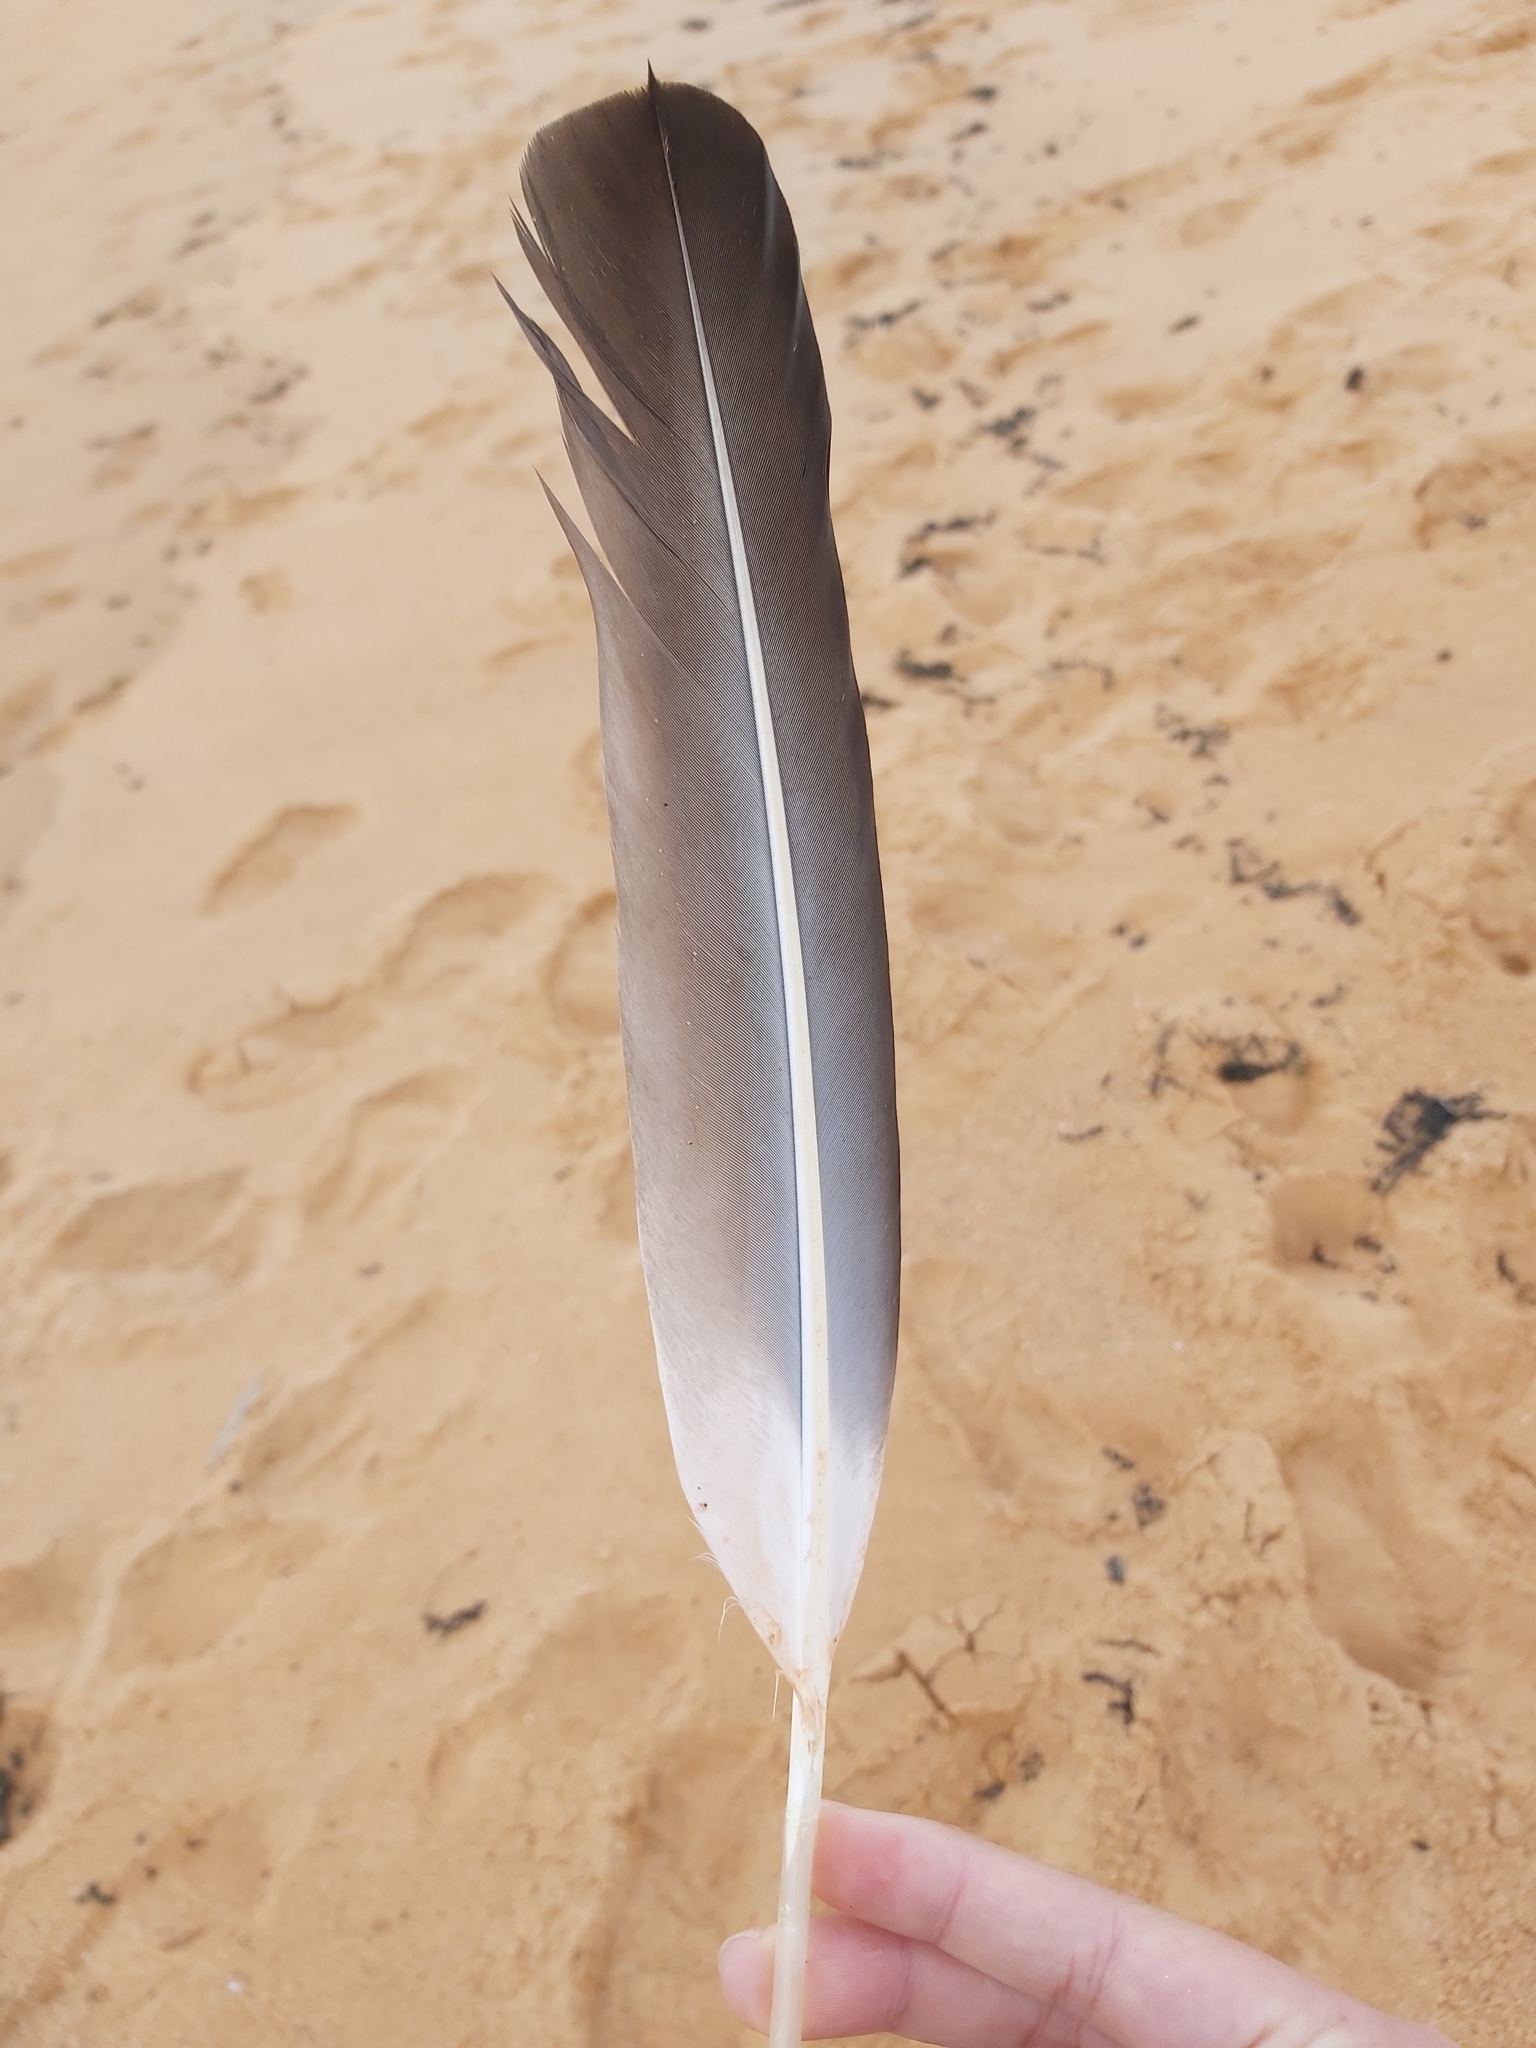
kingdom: Animalia
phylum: Chordata
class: Aves
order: Pelecaniformes
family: Pelecanidae
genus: Pelecanus
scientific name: Pelecanus conspicillatus
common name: Australian pelican
